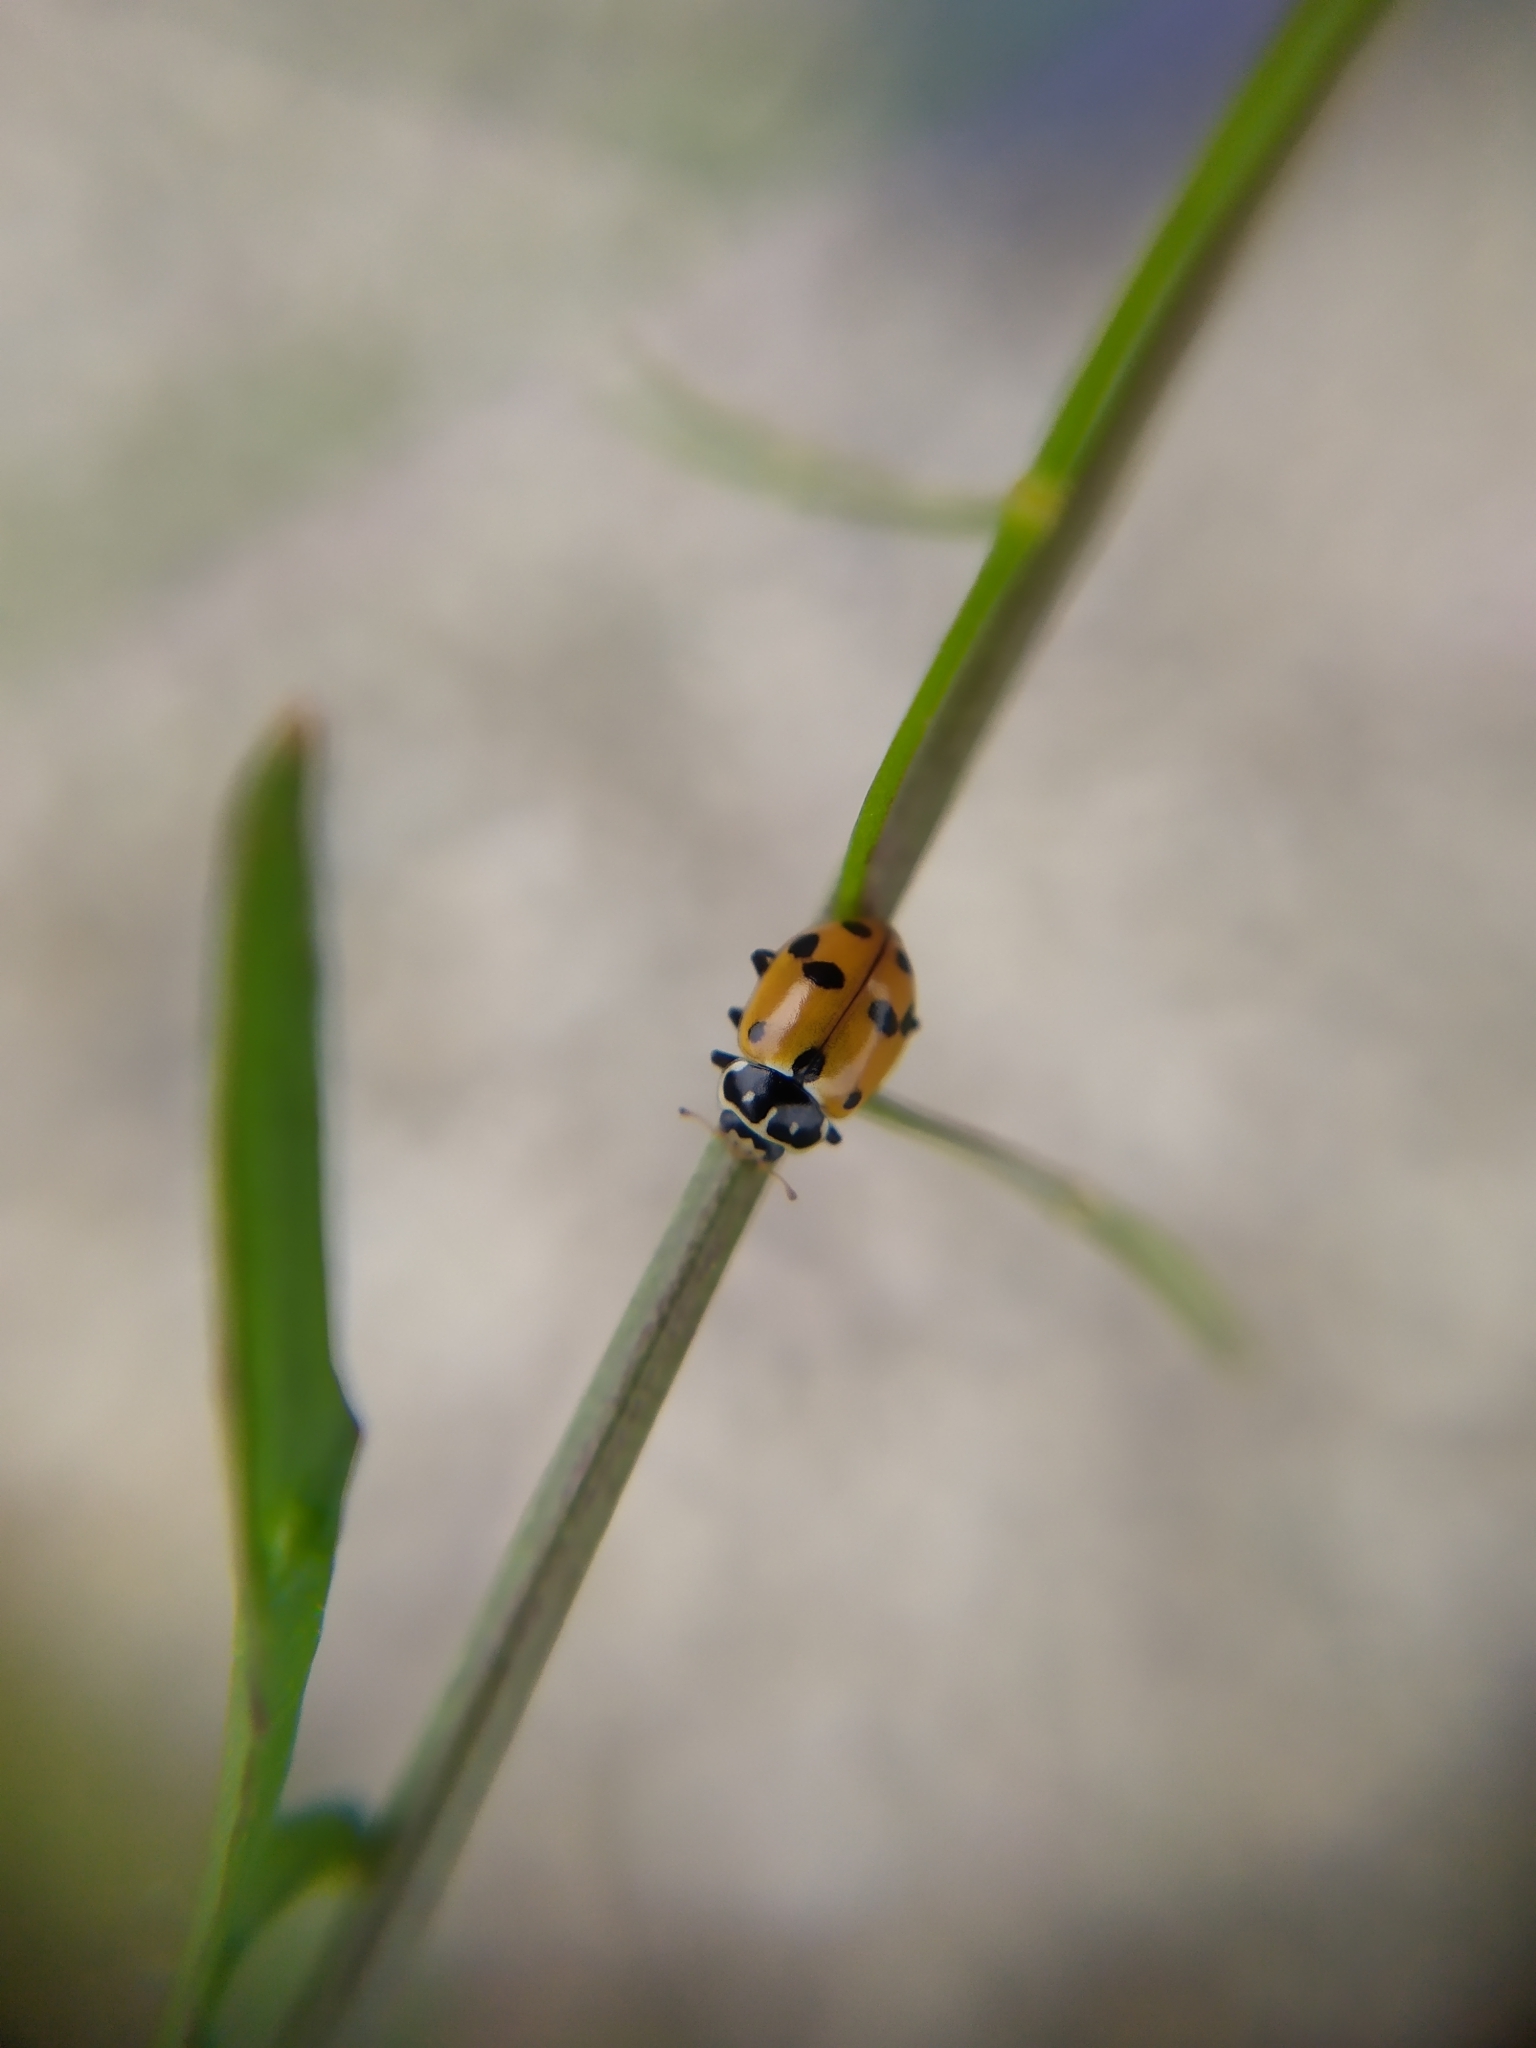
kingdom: Animalia
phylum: Arthropoda
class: Insecta
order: Coleoptera
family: Coccinellidae
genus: Hippodamia
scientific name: Hippodamia variegata
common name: Ladybird beetle
